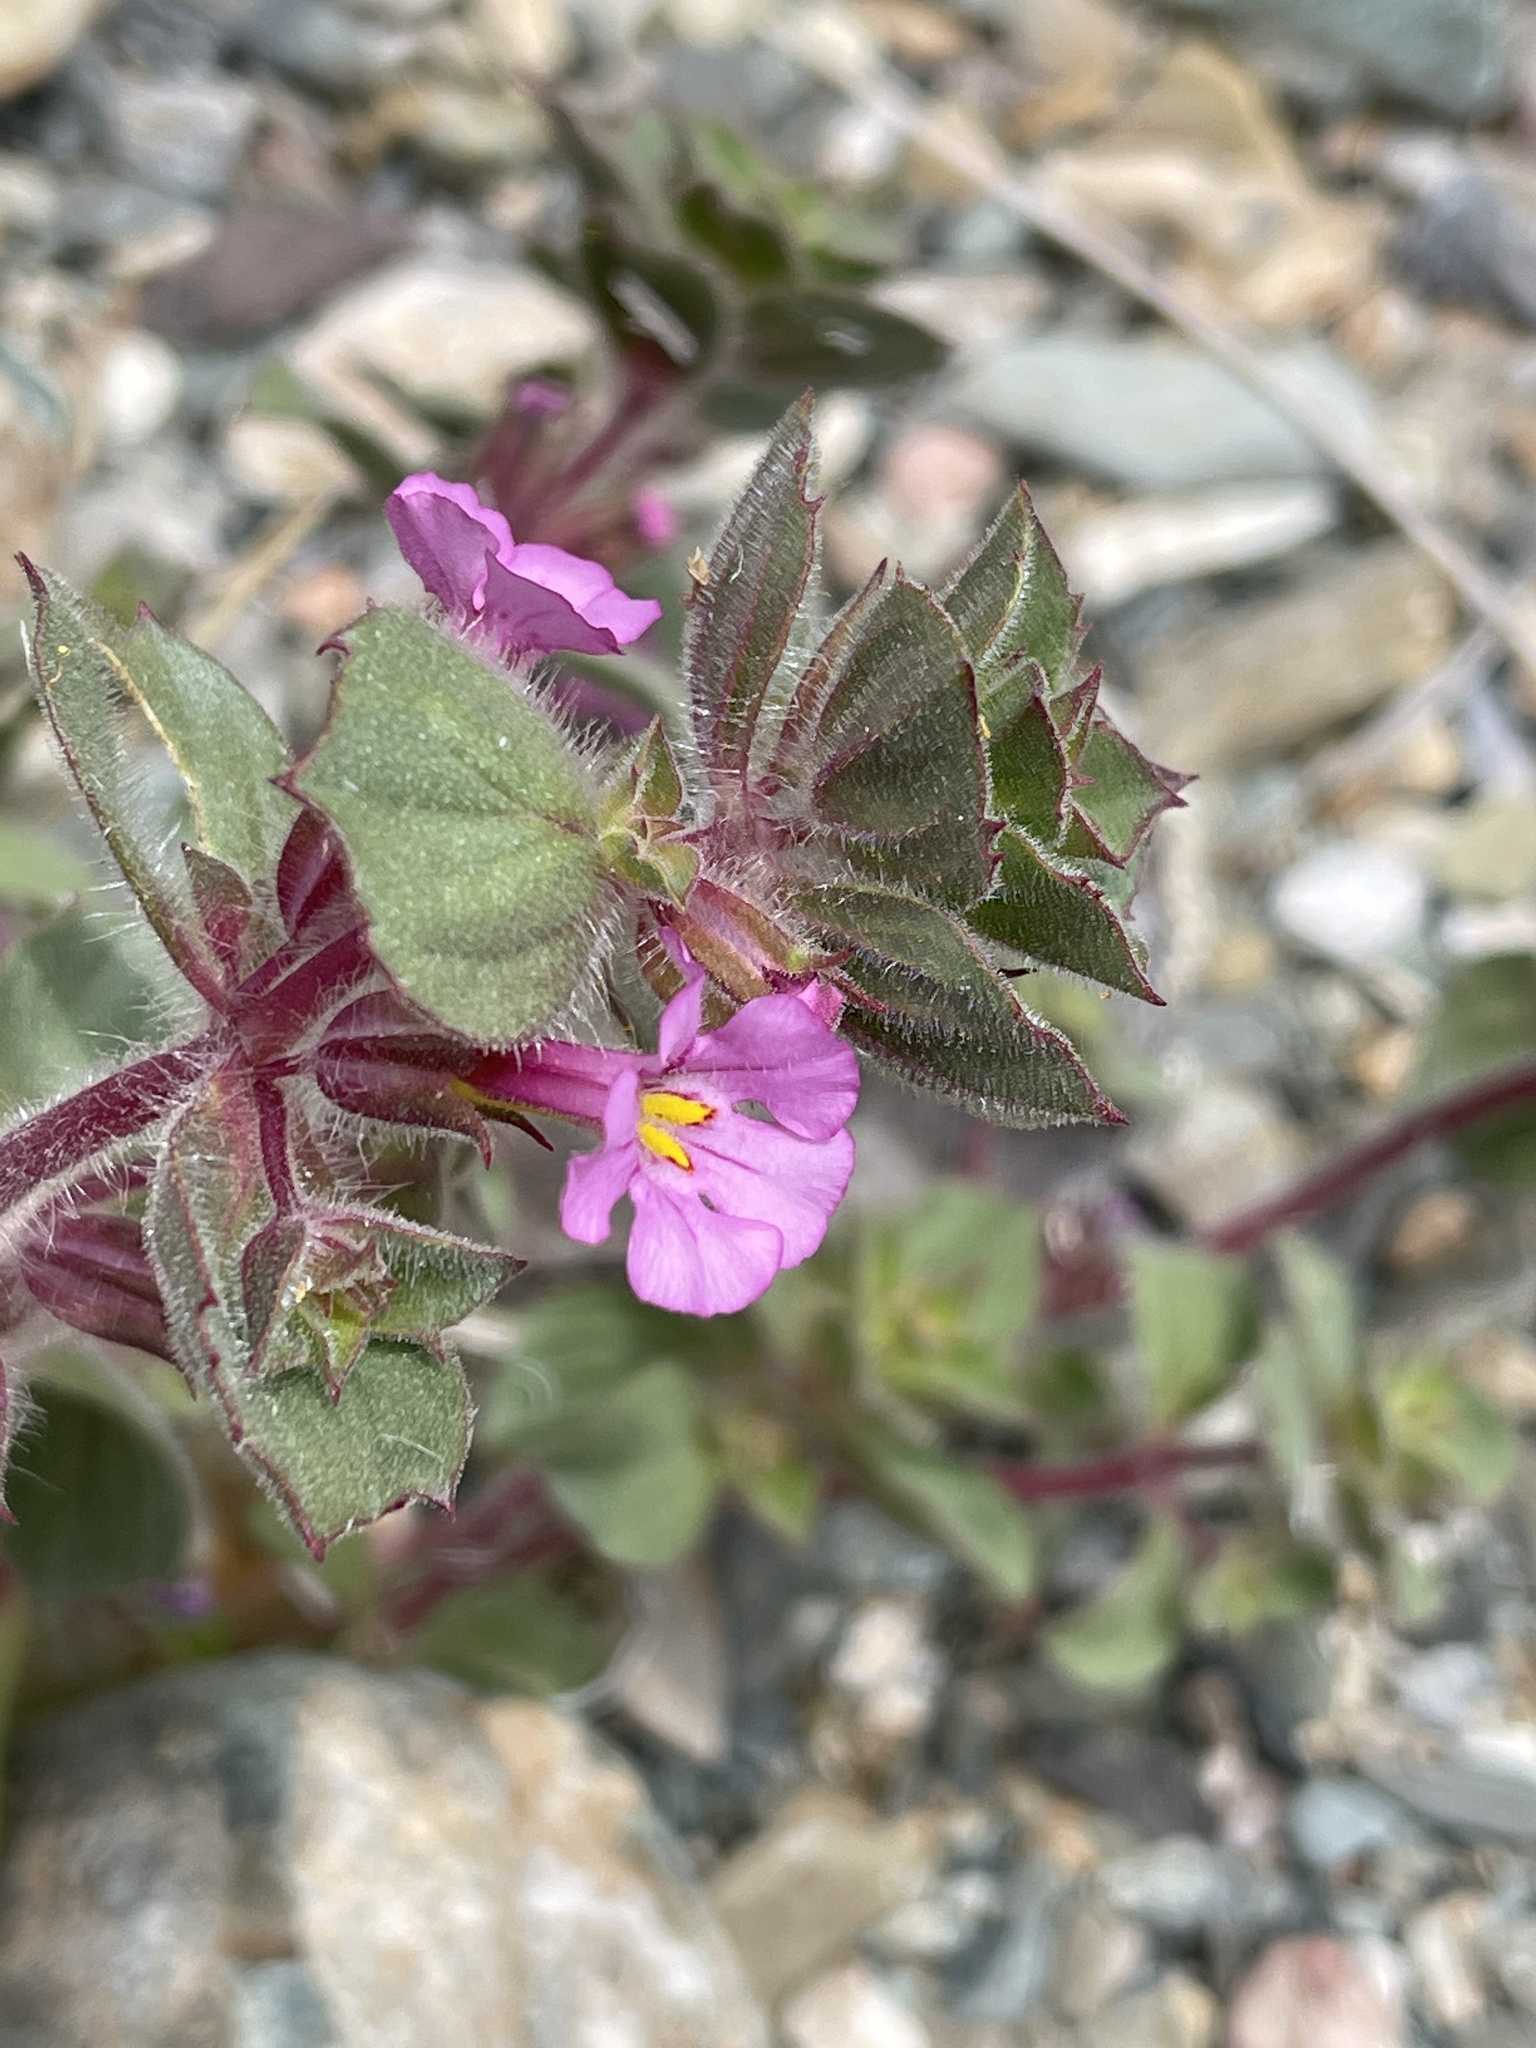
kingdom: Plantae
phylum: Tracheophyta
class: Magnoliopsida
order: Lamiales
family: Phrymaceae
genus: Diplacus
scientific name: Diplacus bigelovii
